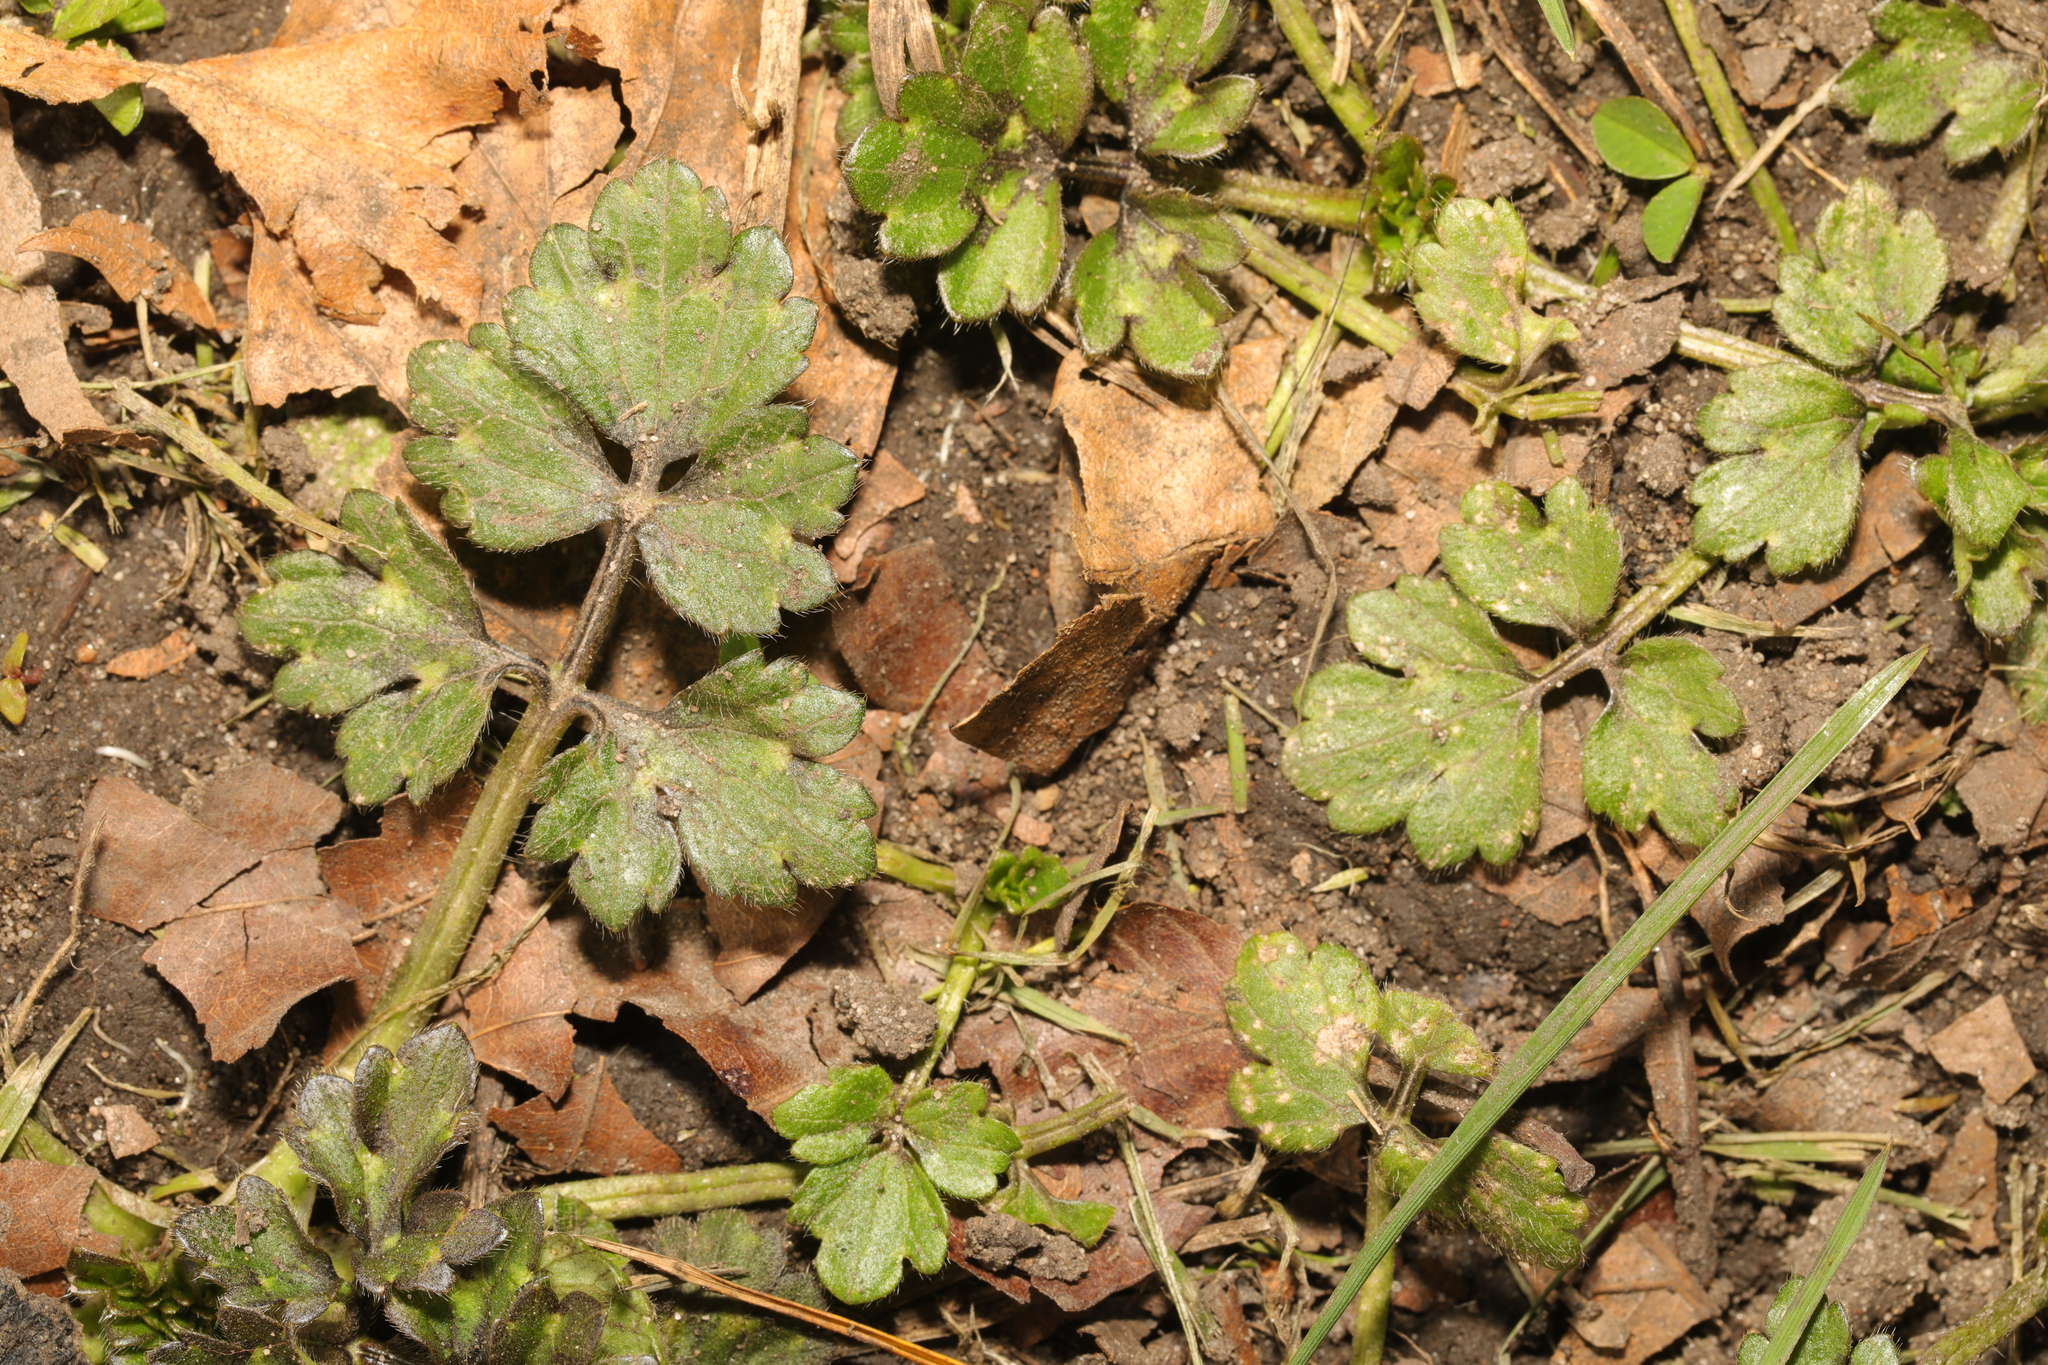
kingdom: Plantae
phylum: Tracheophyta
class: Magnoliopsida
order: Ranunculales
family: Ranunculaceae
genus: Ranunculus
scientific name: Ranunculus repens
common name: Creeping buttercup
